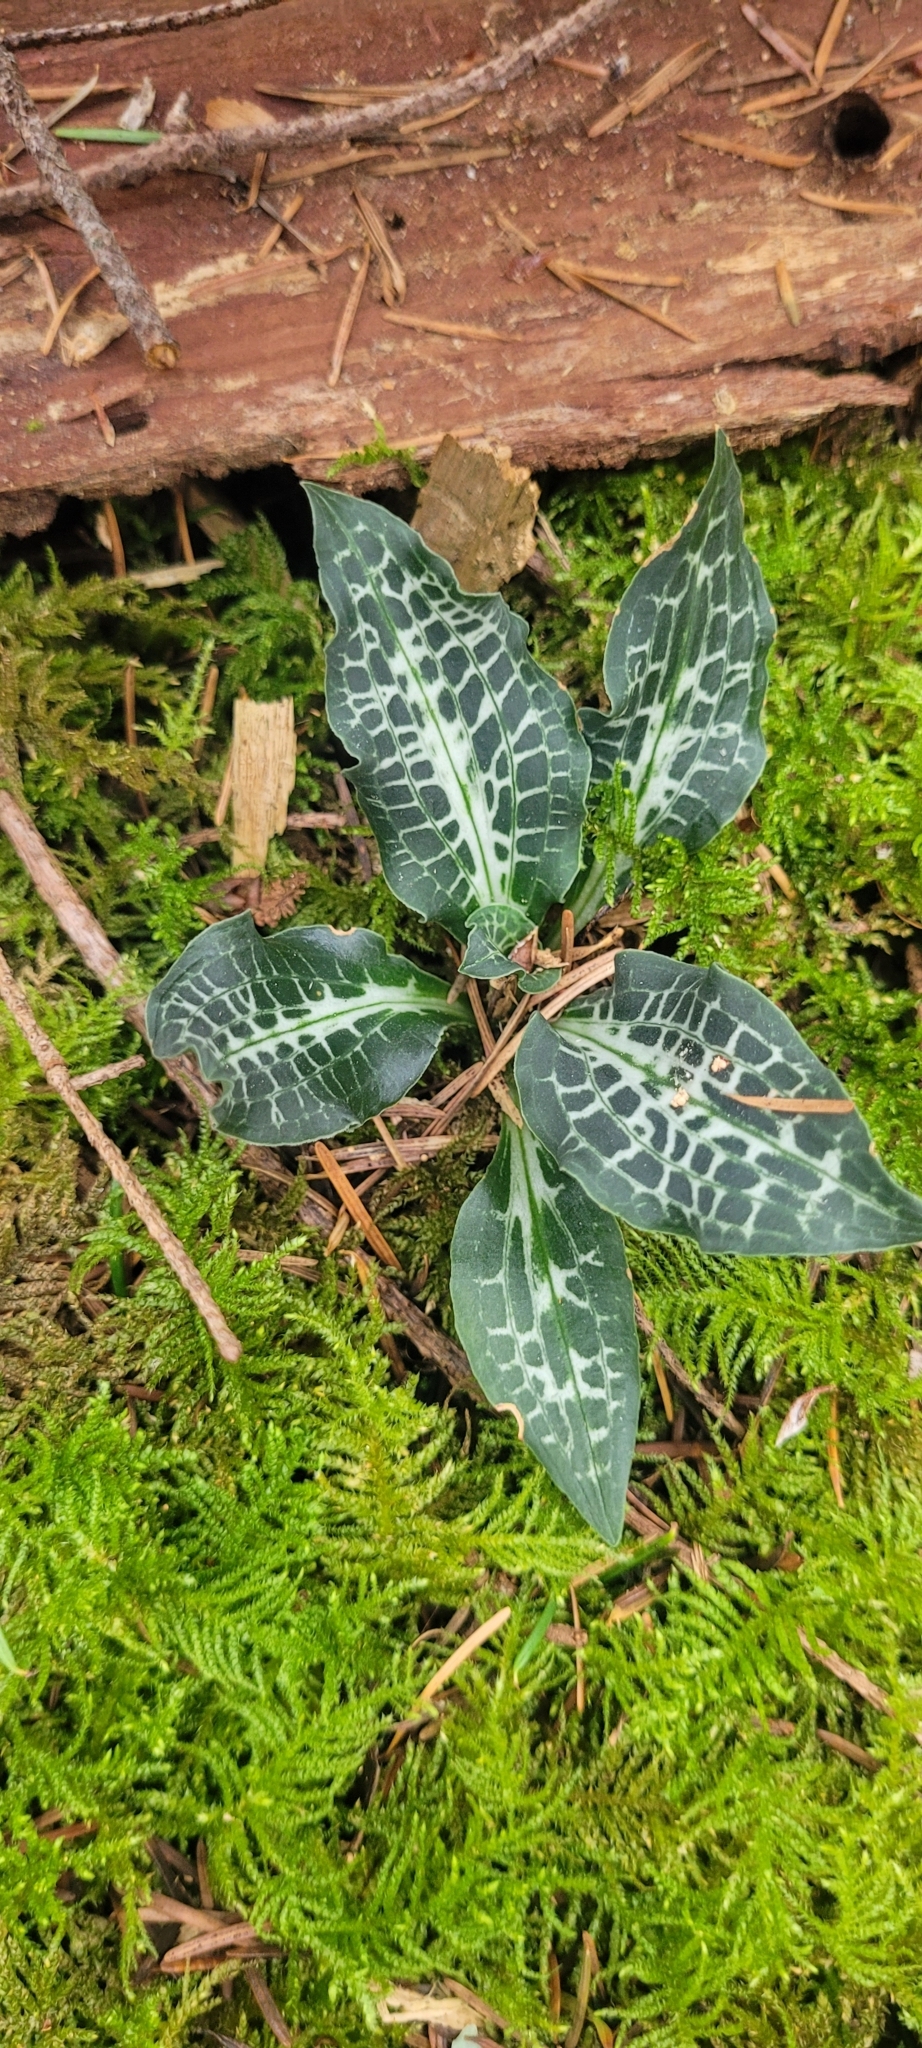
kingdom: Plantae
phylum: Tracheophyta
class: Liliopsida
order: Asparagales
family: Orchidaceae
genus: Goodyera
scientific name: Goodyera oblongifolia
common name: Giant rattlesnake-plantain
